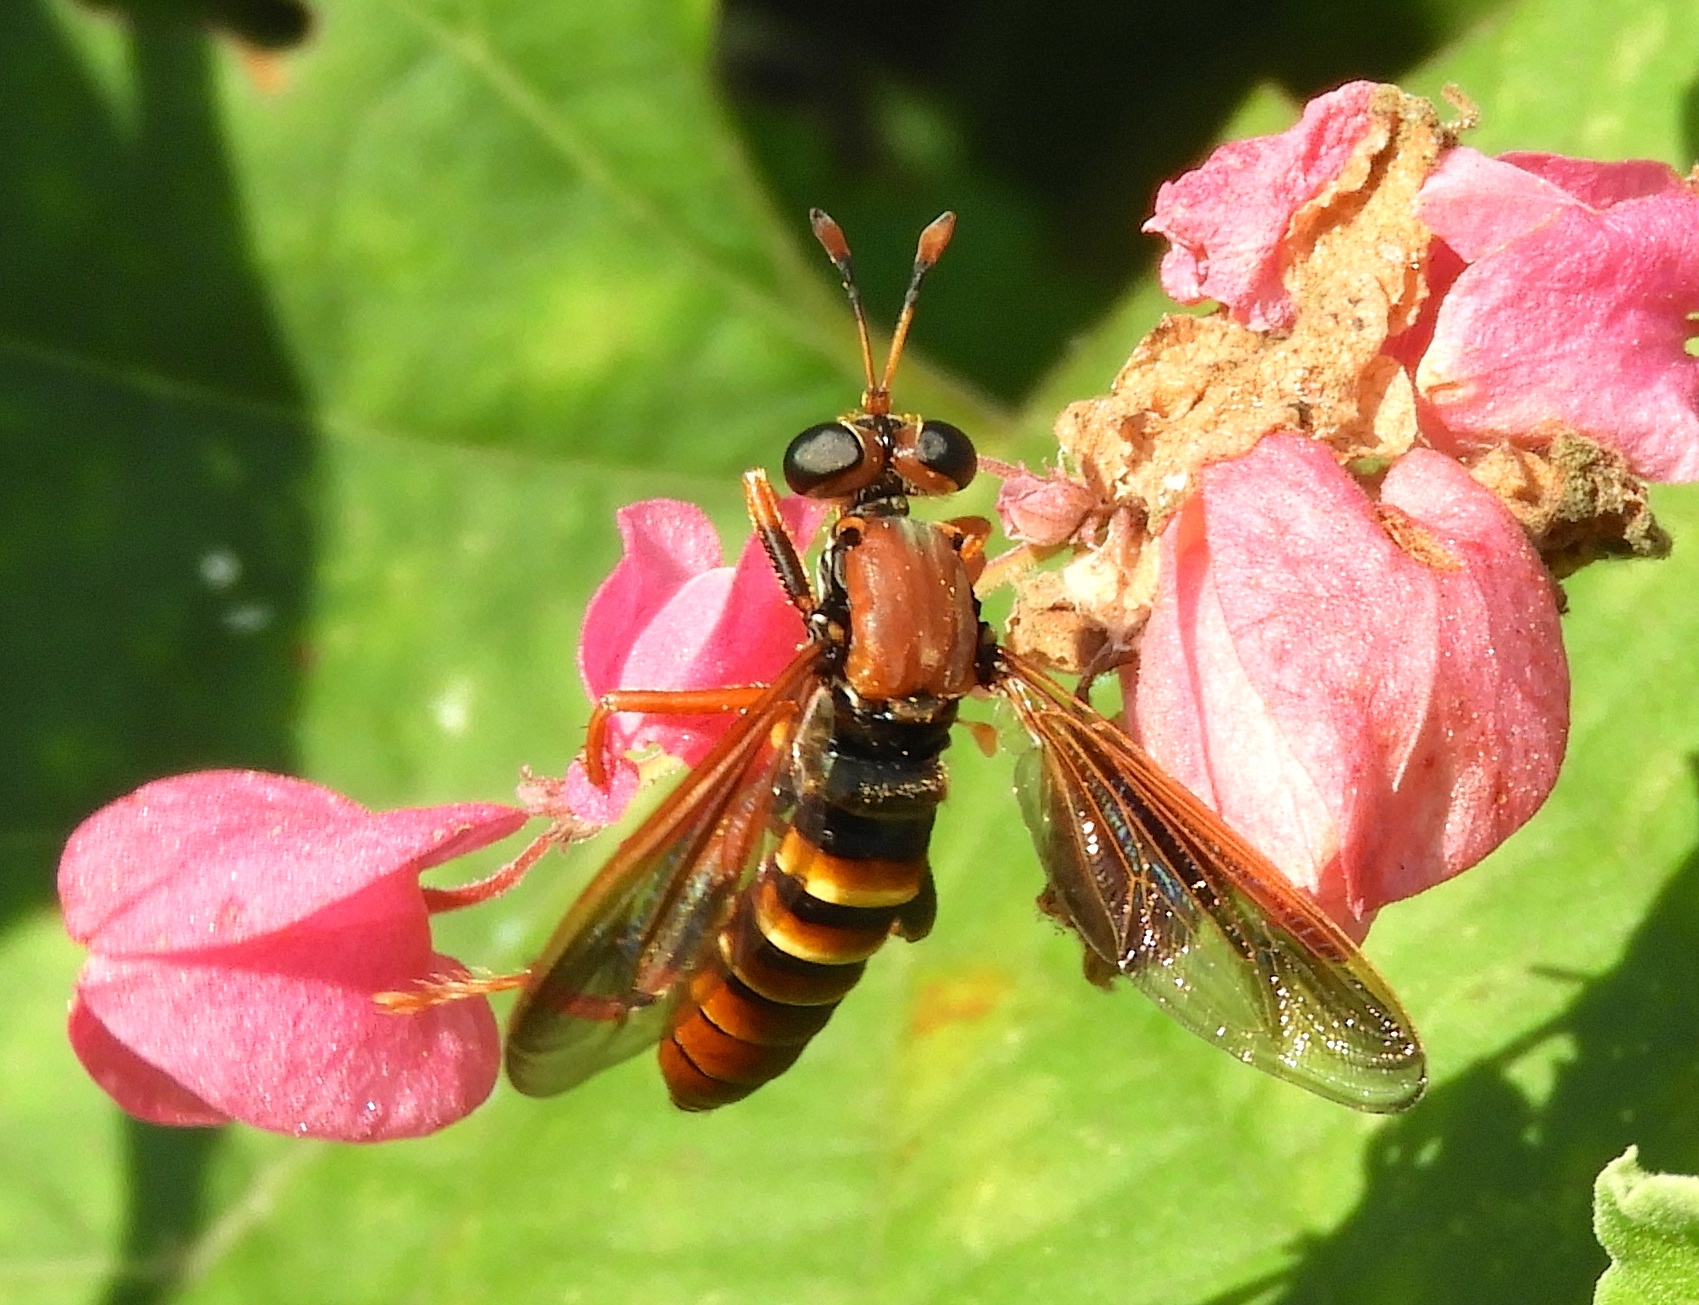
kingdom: Animalia
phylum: Arthropoda
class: Insecta
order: Diptera
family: Mydidae
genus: Mydas
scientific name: Mydas
